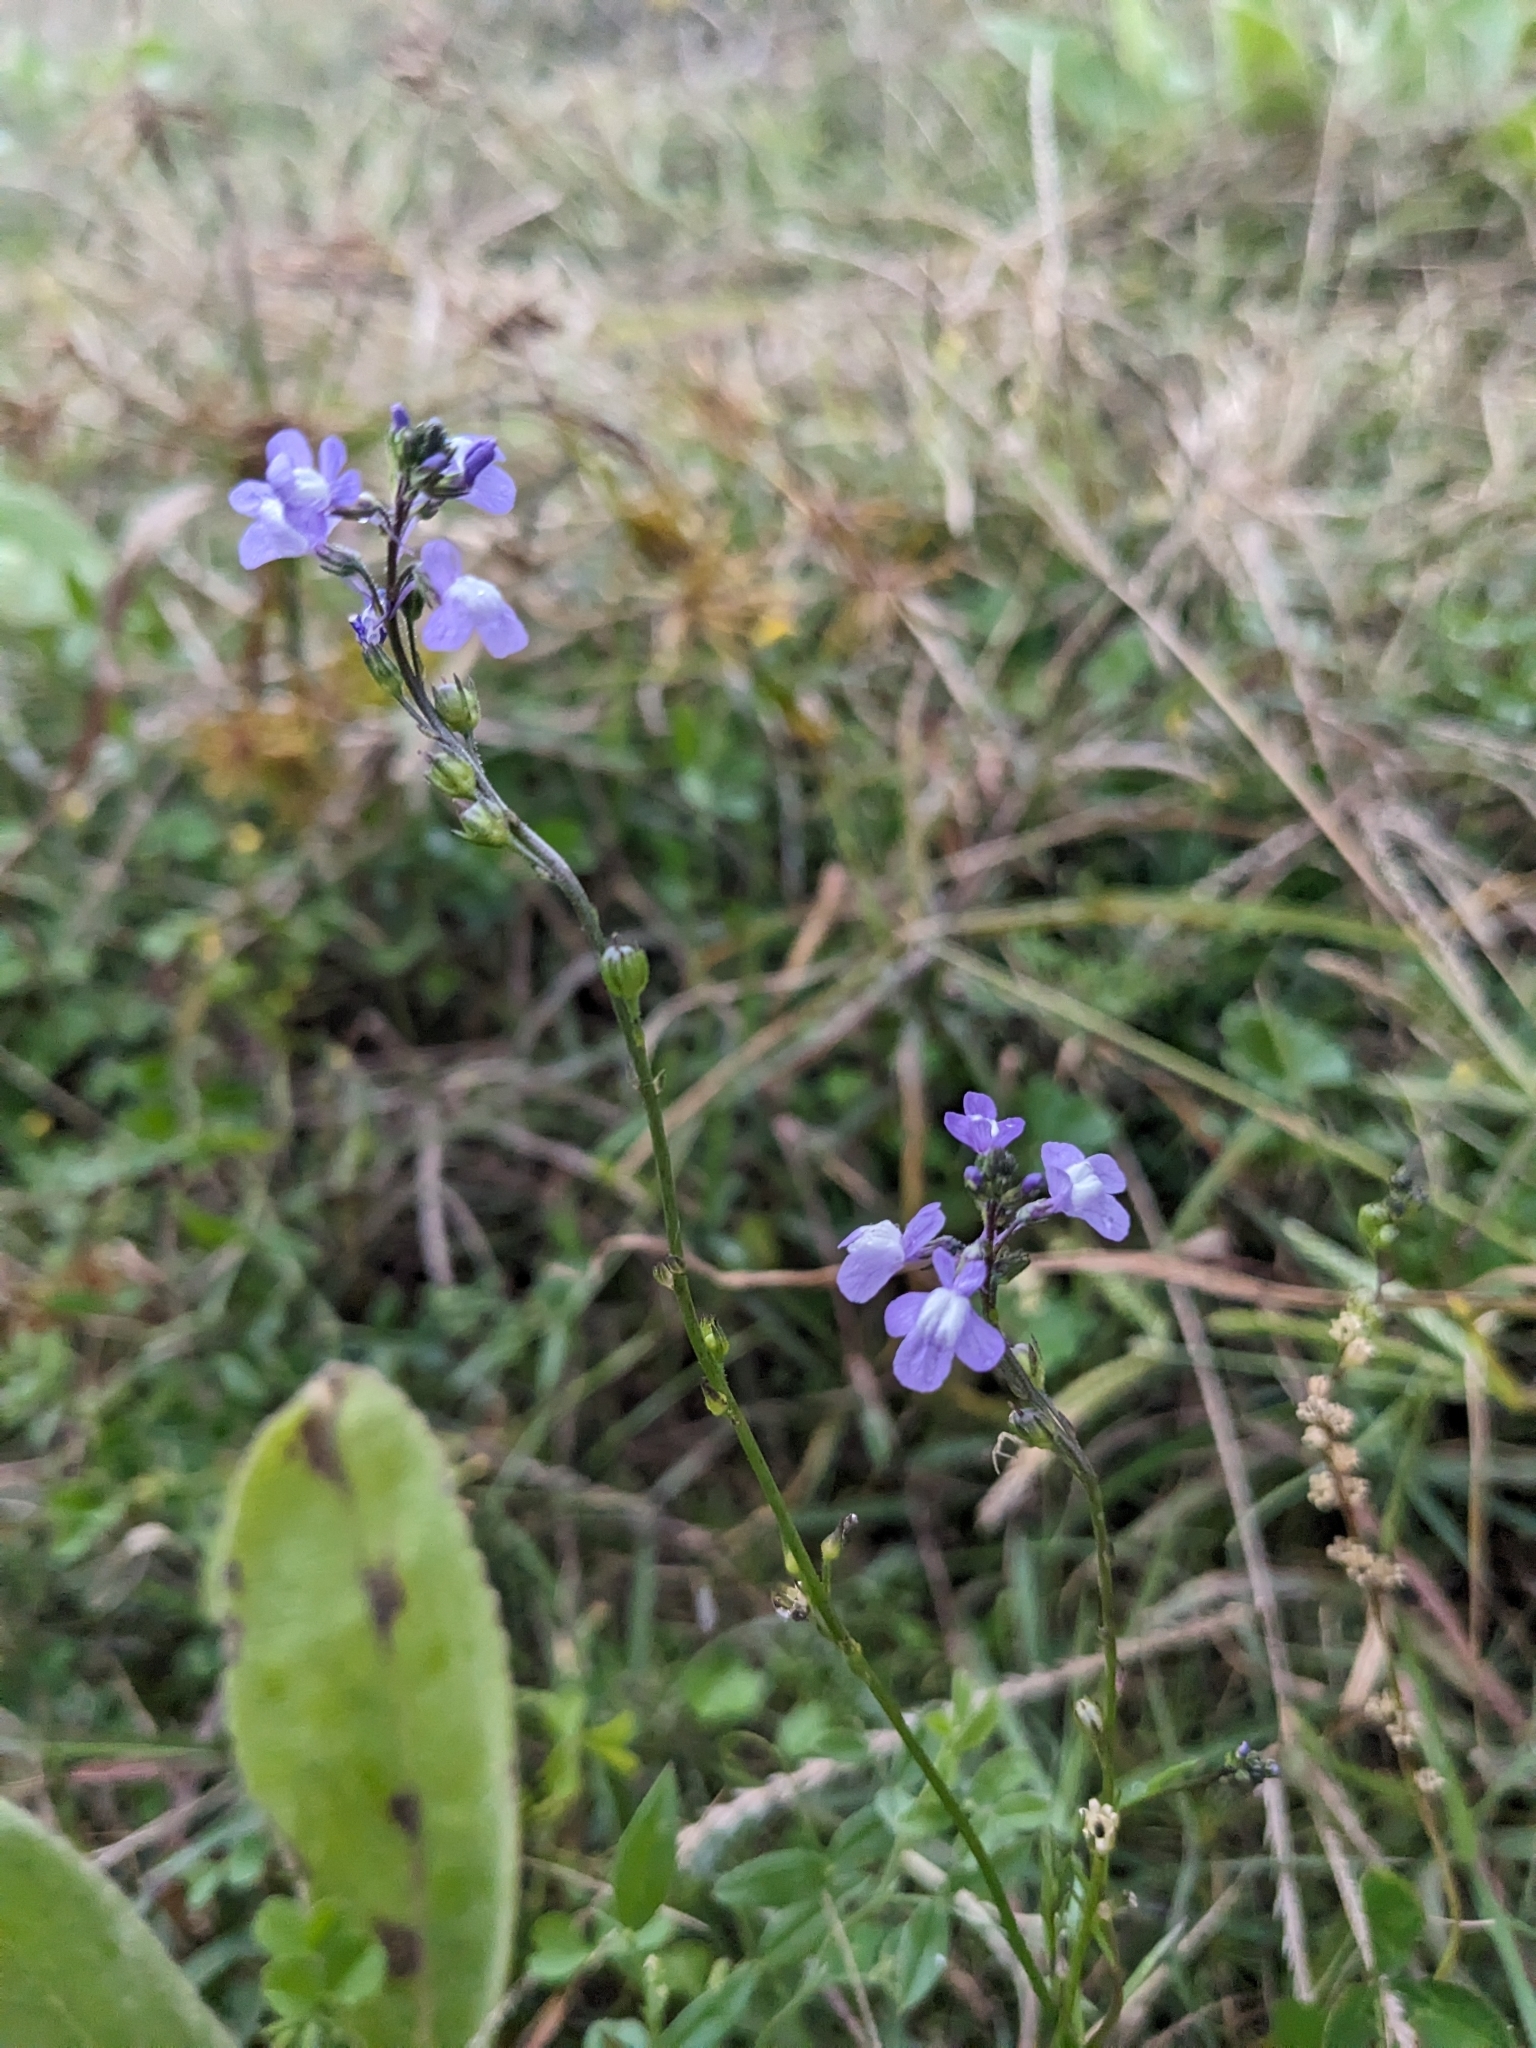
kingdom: Plantae
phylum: Tracheophyta
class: Magnoliopsida
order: Lamiales
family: Plantaginaceae
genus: Nuttallanthus
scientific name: Nuttallanthus canadensis
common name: Blue toadflax
